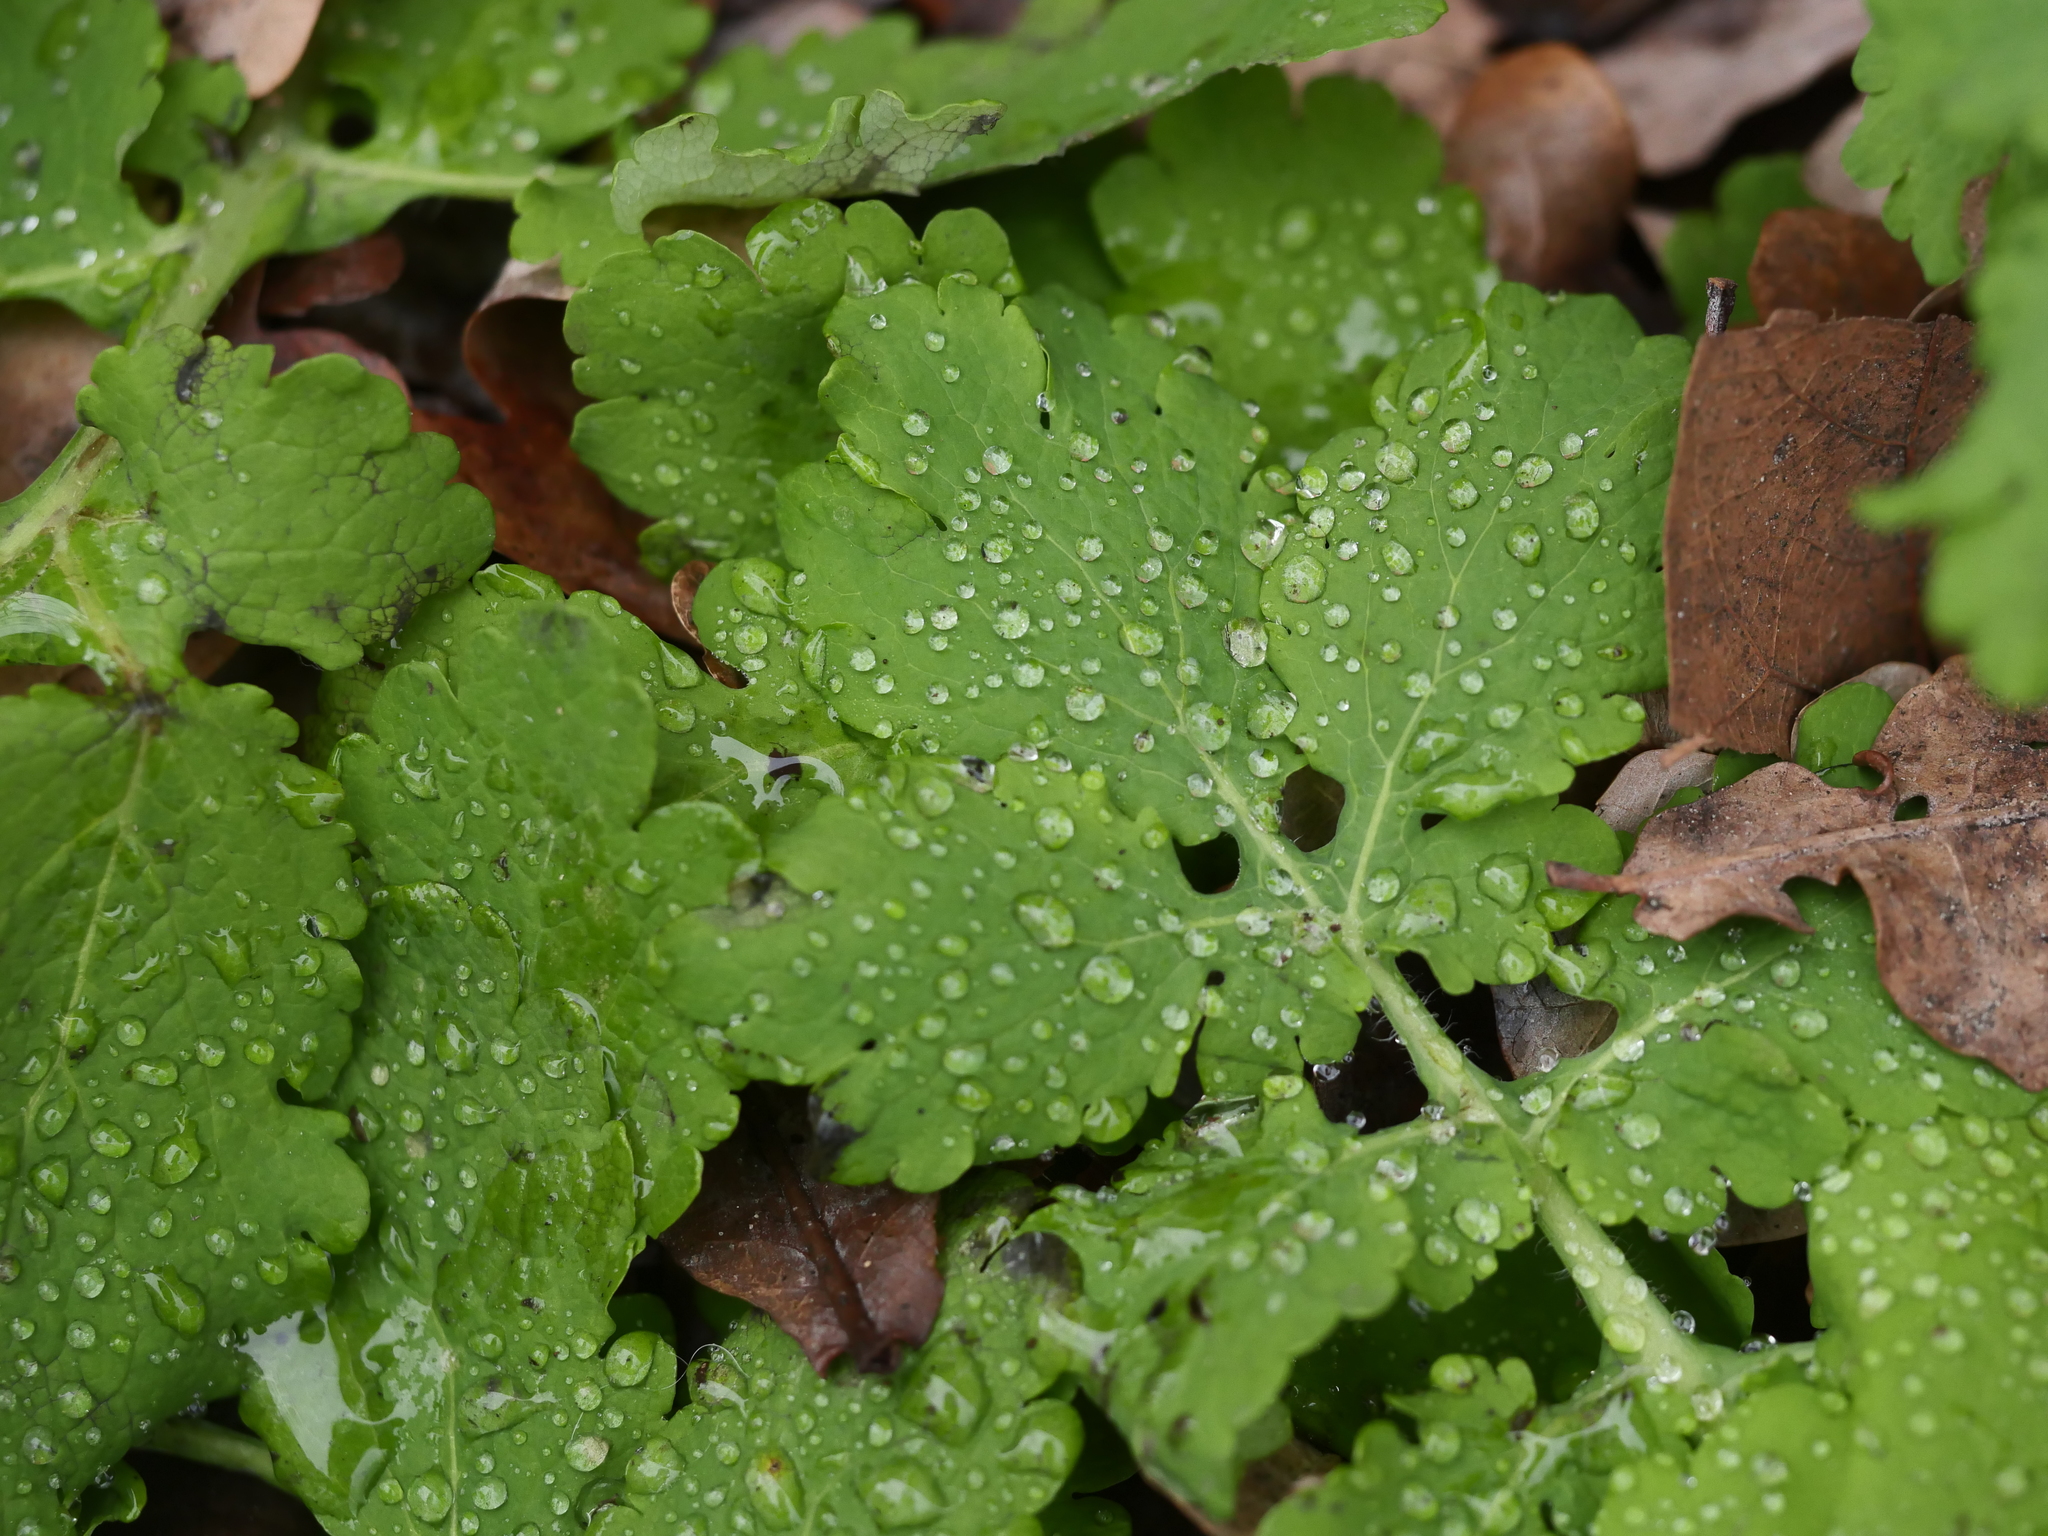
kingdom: Plantae
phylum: Tracheophyta
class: Magnoliopsida
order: Ranunculales
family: Papaveraceae
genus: Chelidonium
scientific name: Chelidonium majus
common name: Greater celandine
